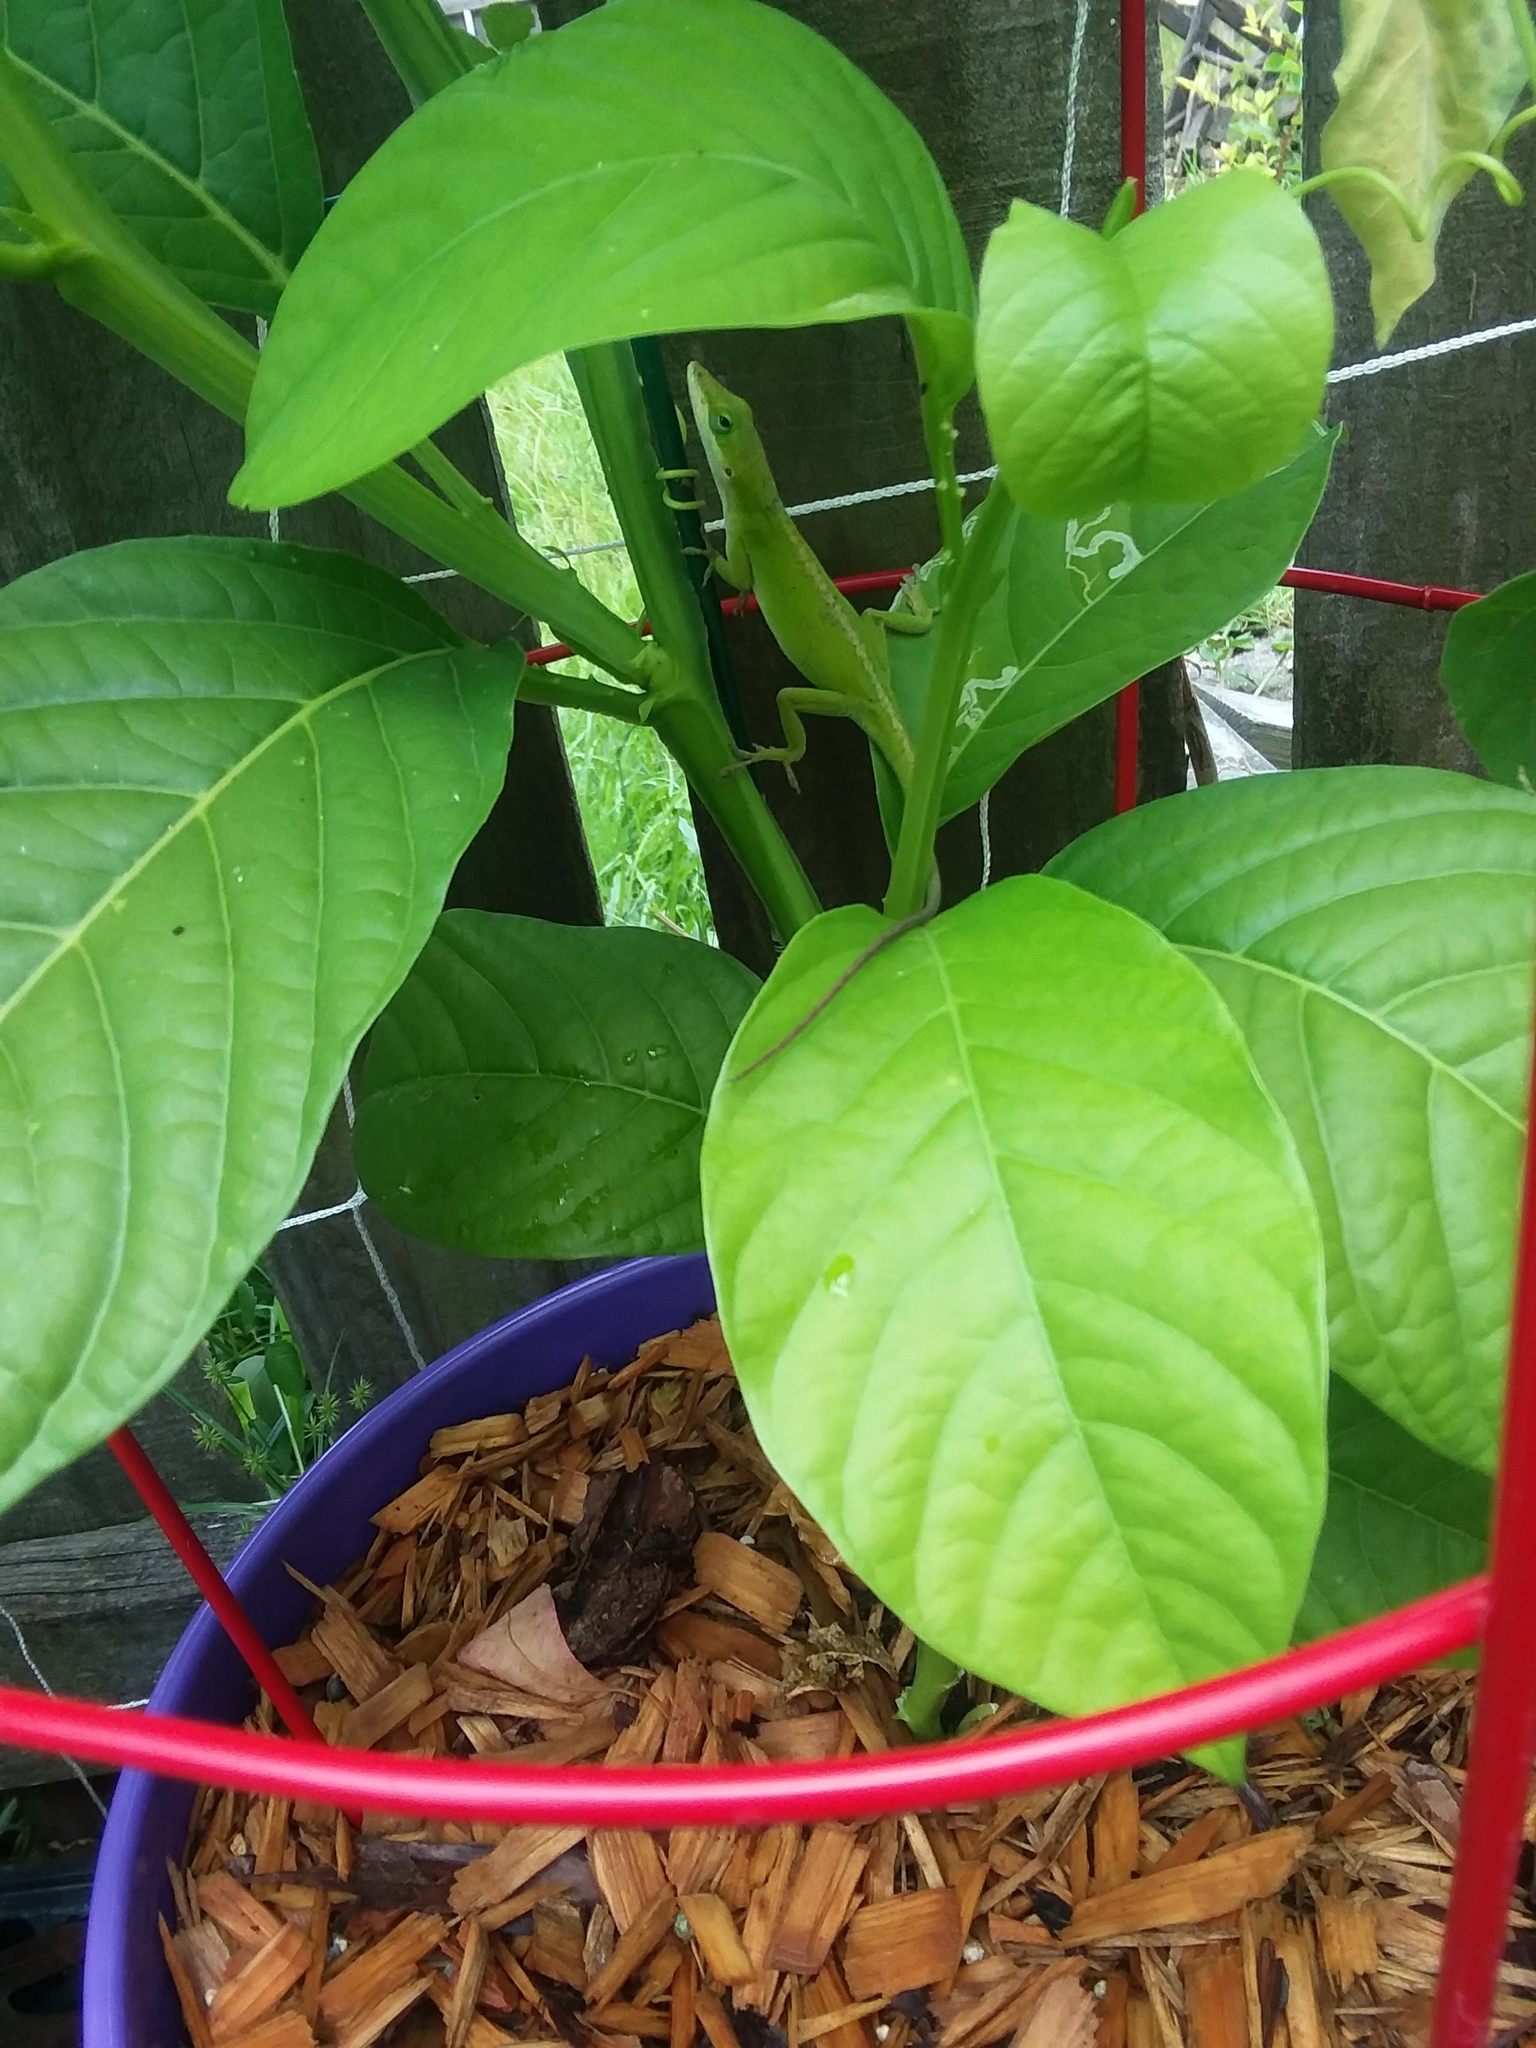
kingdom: Animalia
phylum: Chordata
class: Squamata
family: Dactyloidae
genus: Anolis
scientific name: Anolis carolinensis
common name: Green anole
